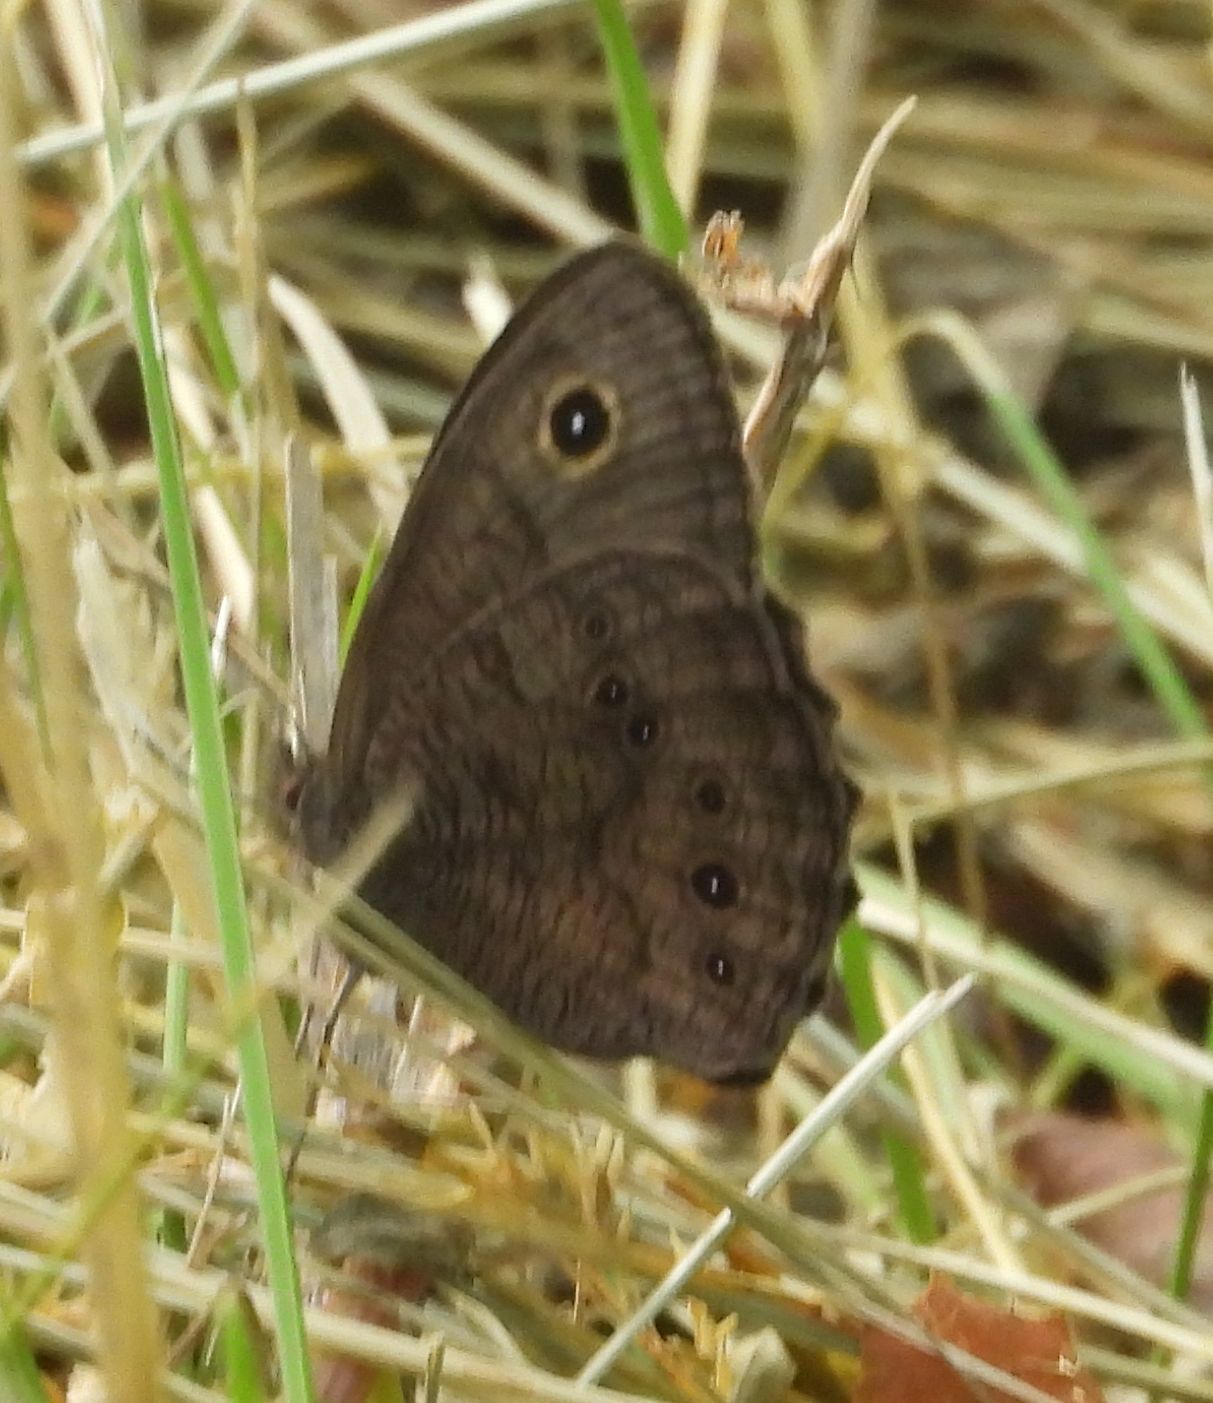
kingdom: Animalia
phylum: Arthropoda
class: Insecta
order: Lepidoptera
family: Nymphalidae
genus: Cercyonis
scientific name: Cercyonis pegala
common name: Common wood-nymph
